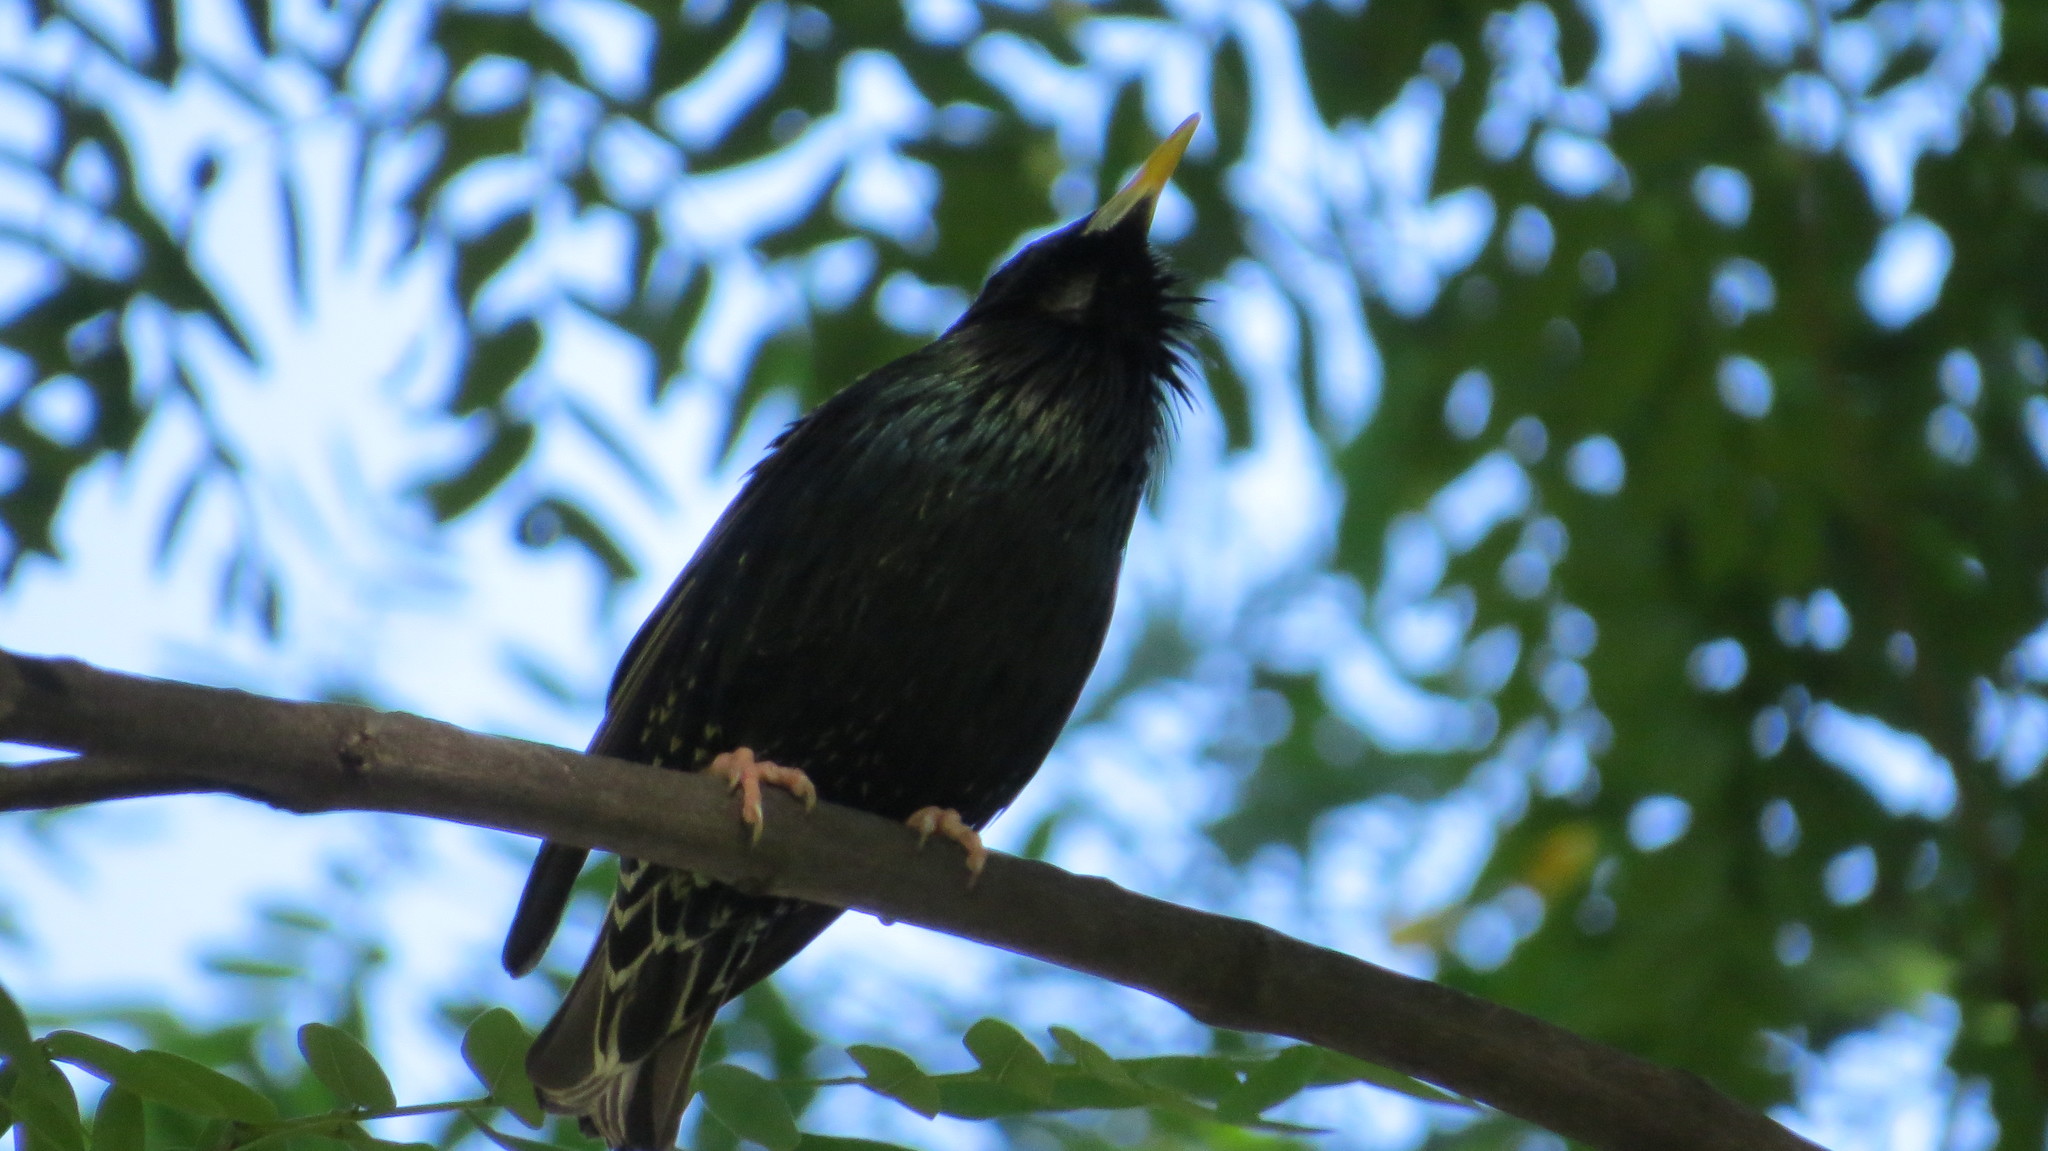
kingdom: Animalia
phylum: Chordata
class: Aves
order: Passeriformes
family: Sturnidae
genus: Sturnus
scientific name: Sturnus vulgaris
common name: Common starling
